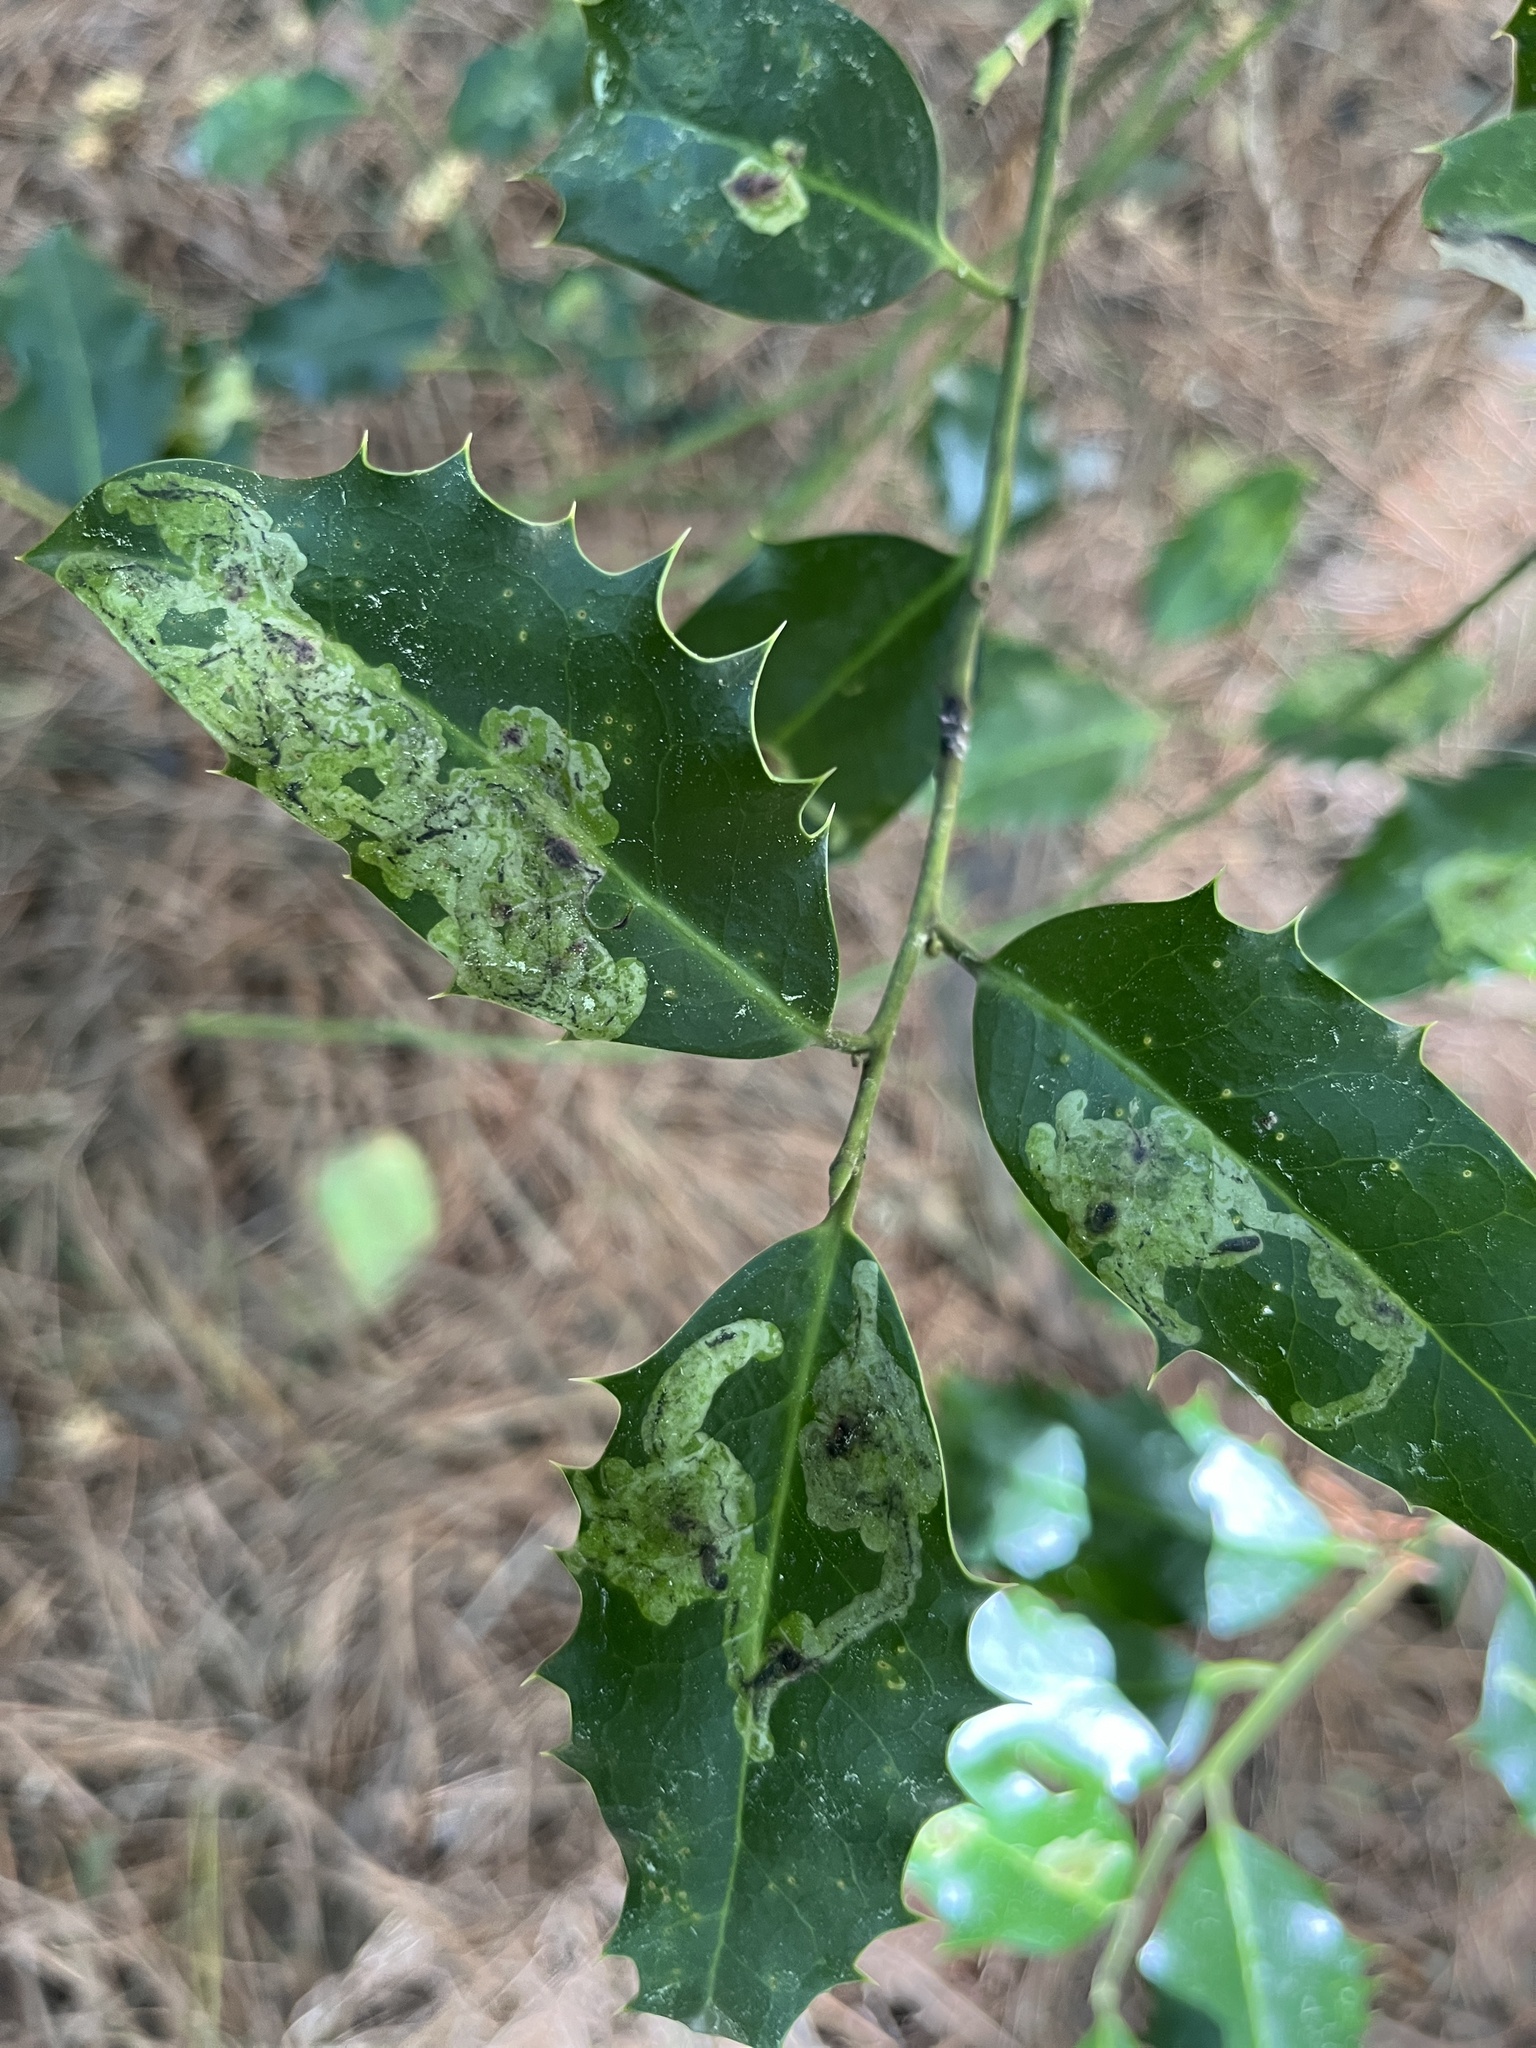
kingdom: Animalia
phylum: Arthropoda
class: Insecta
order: Diptera
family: Agromyzidae
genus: Phytomyza
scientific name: Phytomyza ilicis
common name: Holly leafminer
